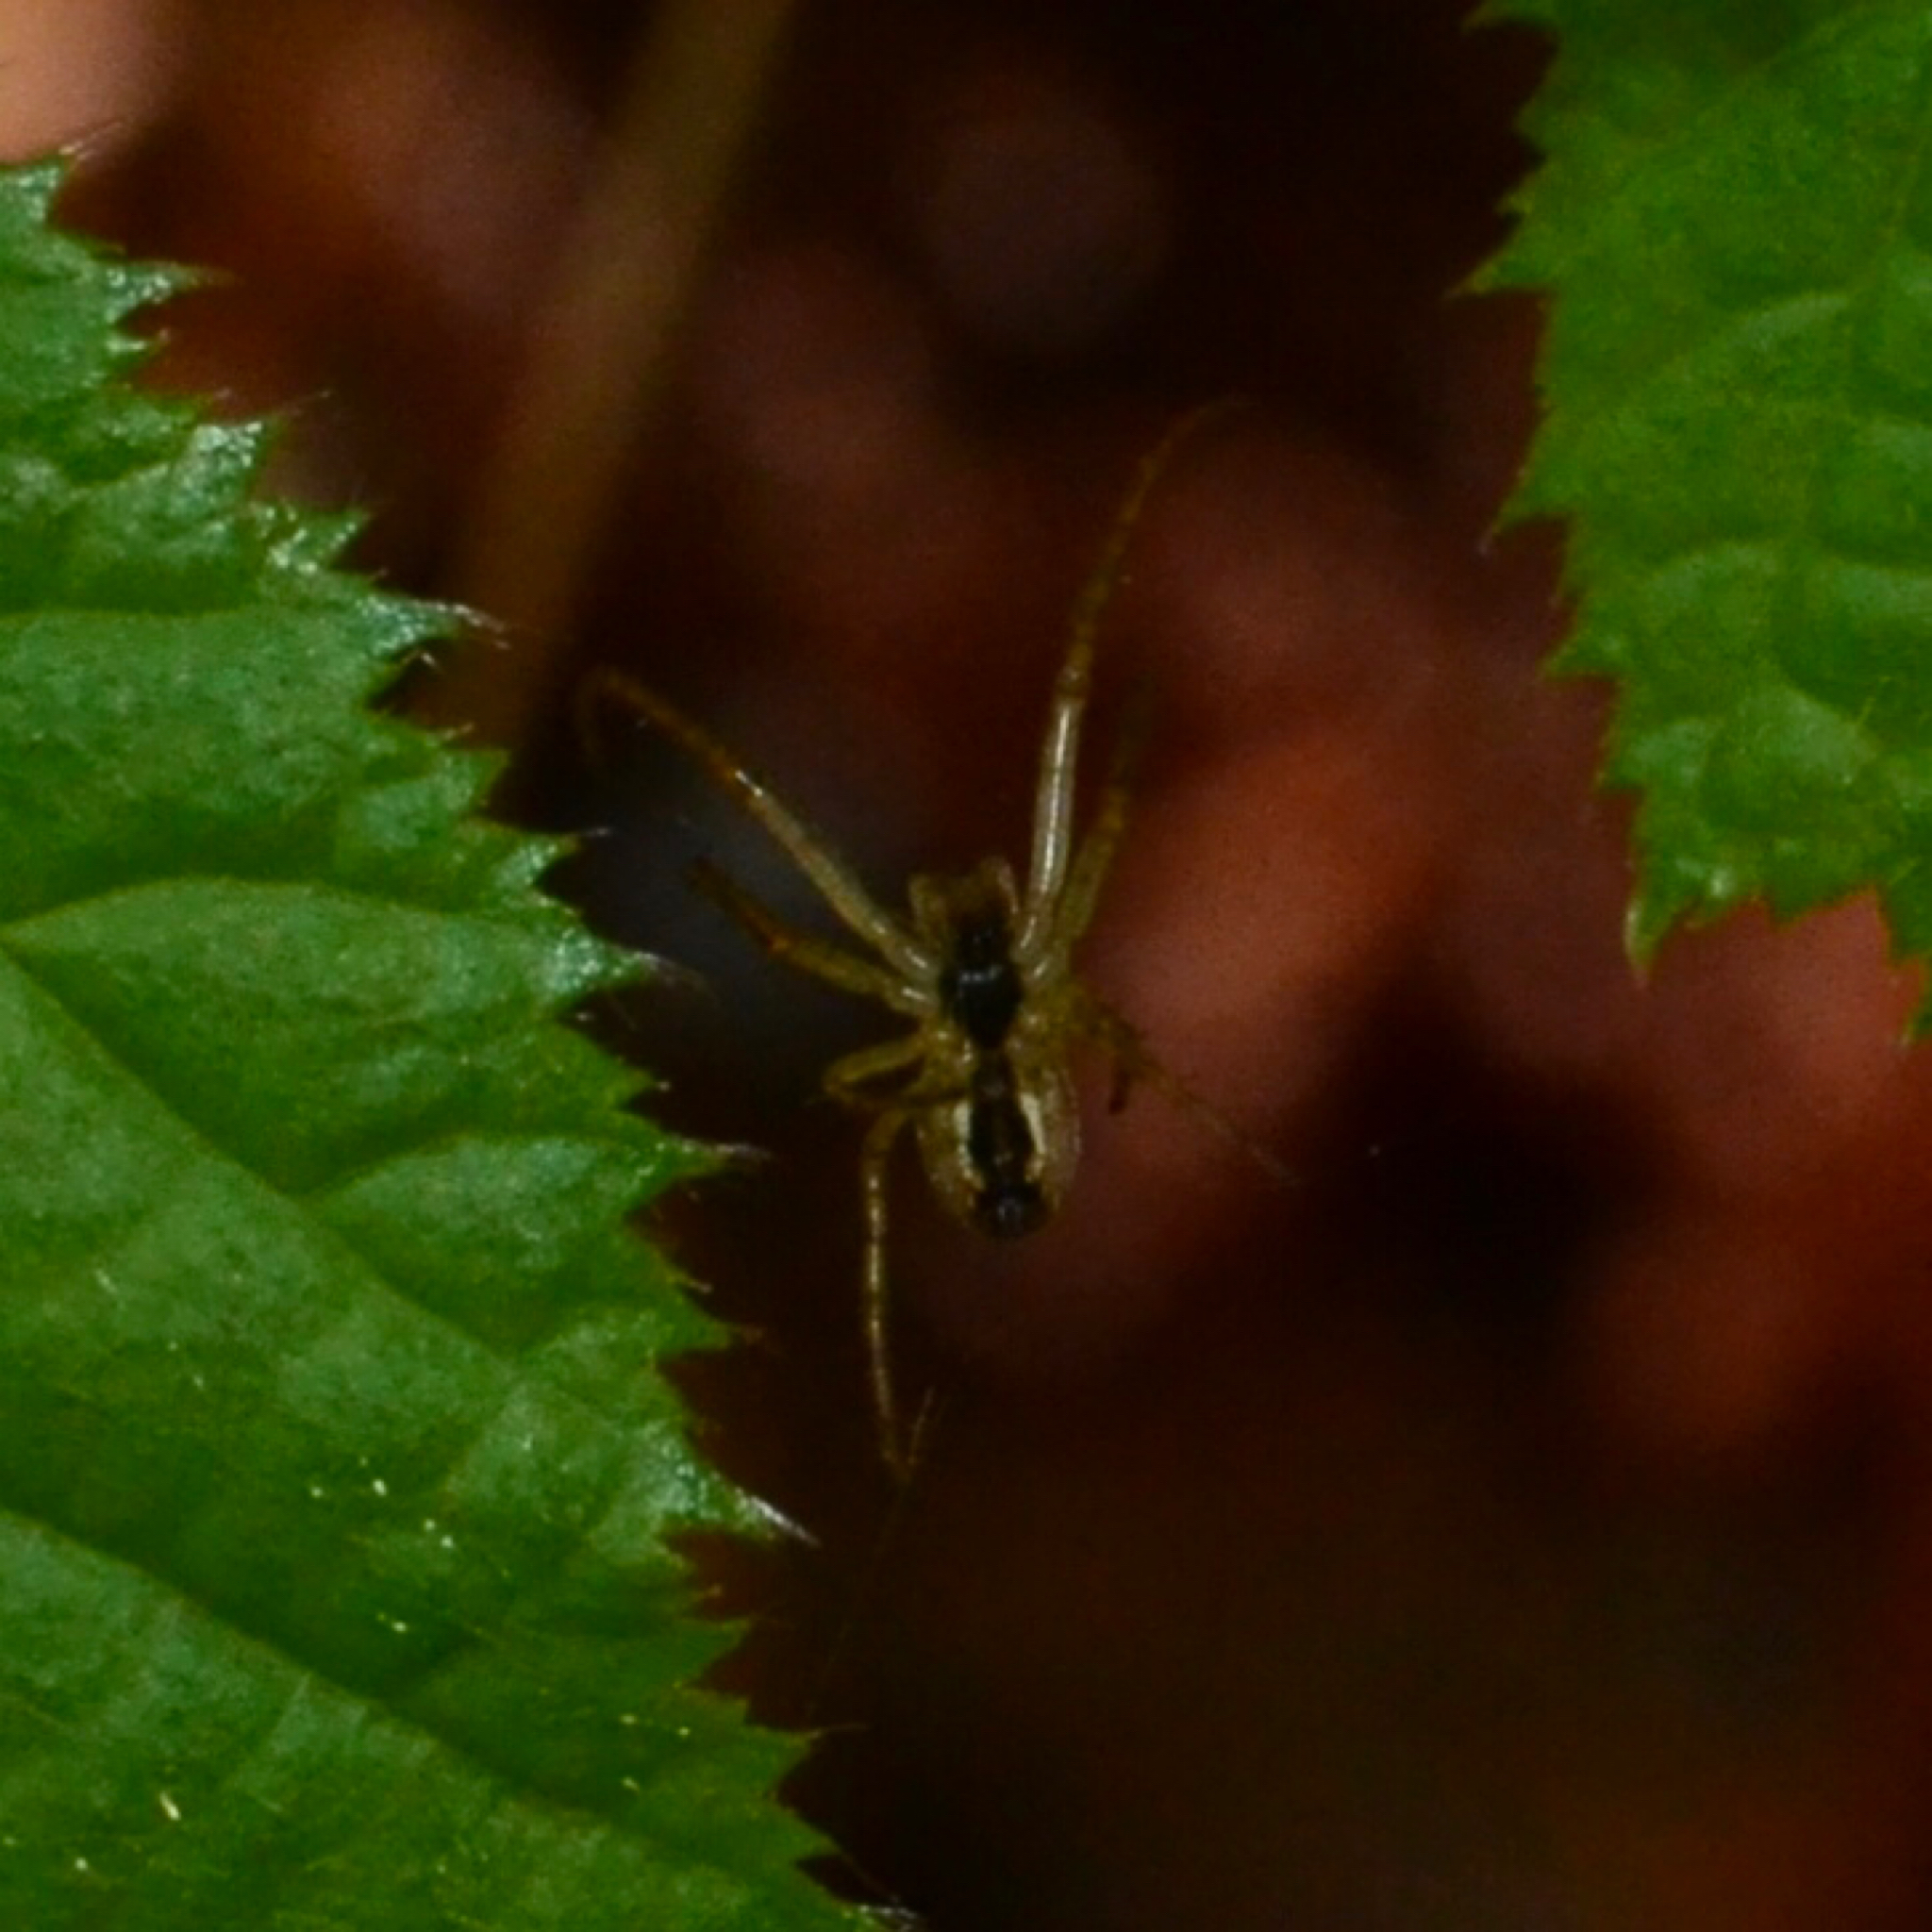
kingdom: Animalia
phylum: Arthropoda
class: Arachnida
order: Araneae
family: Tetragnathidae
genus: Metellina
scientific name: Metellina
